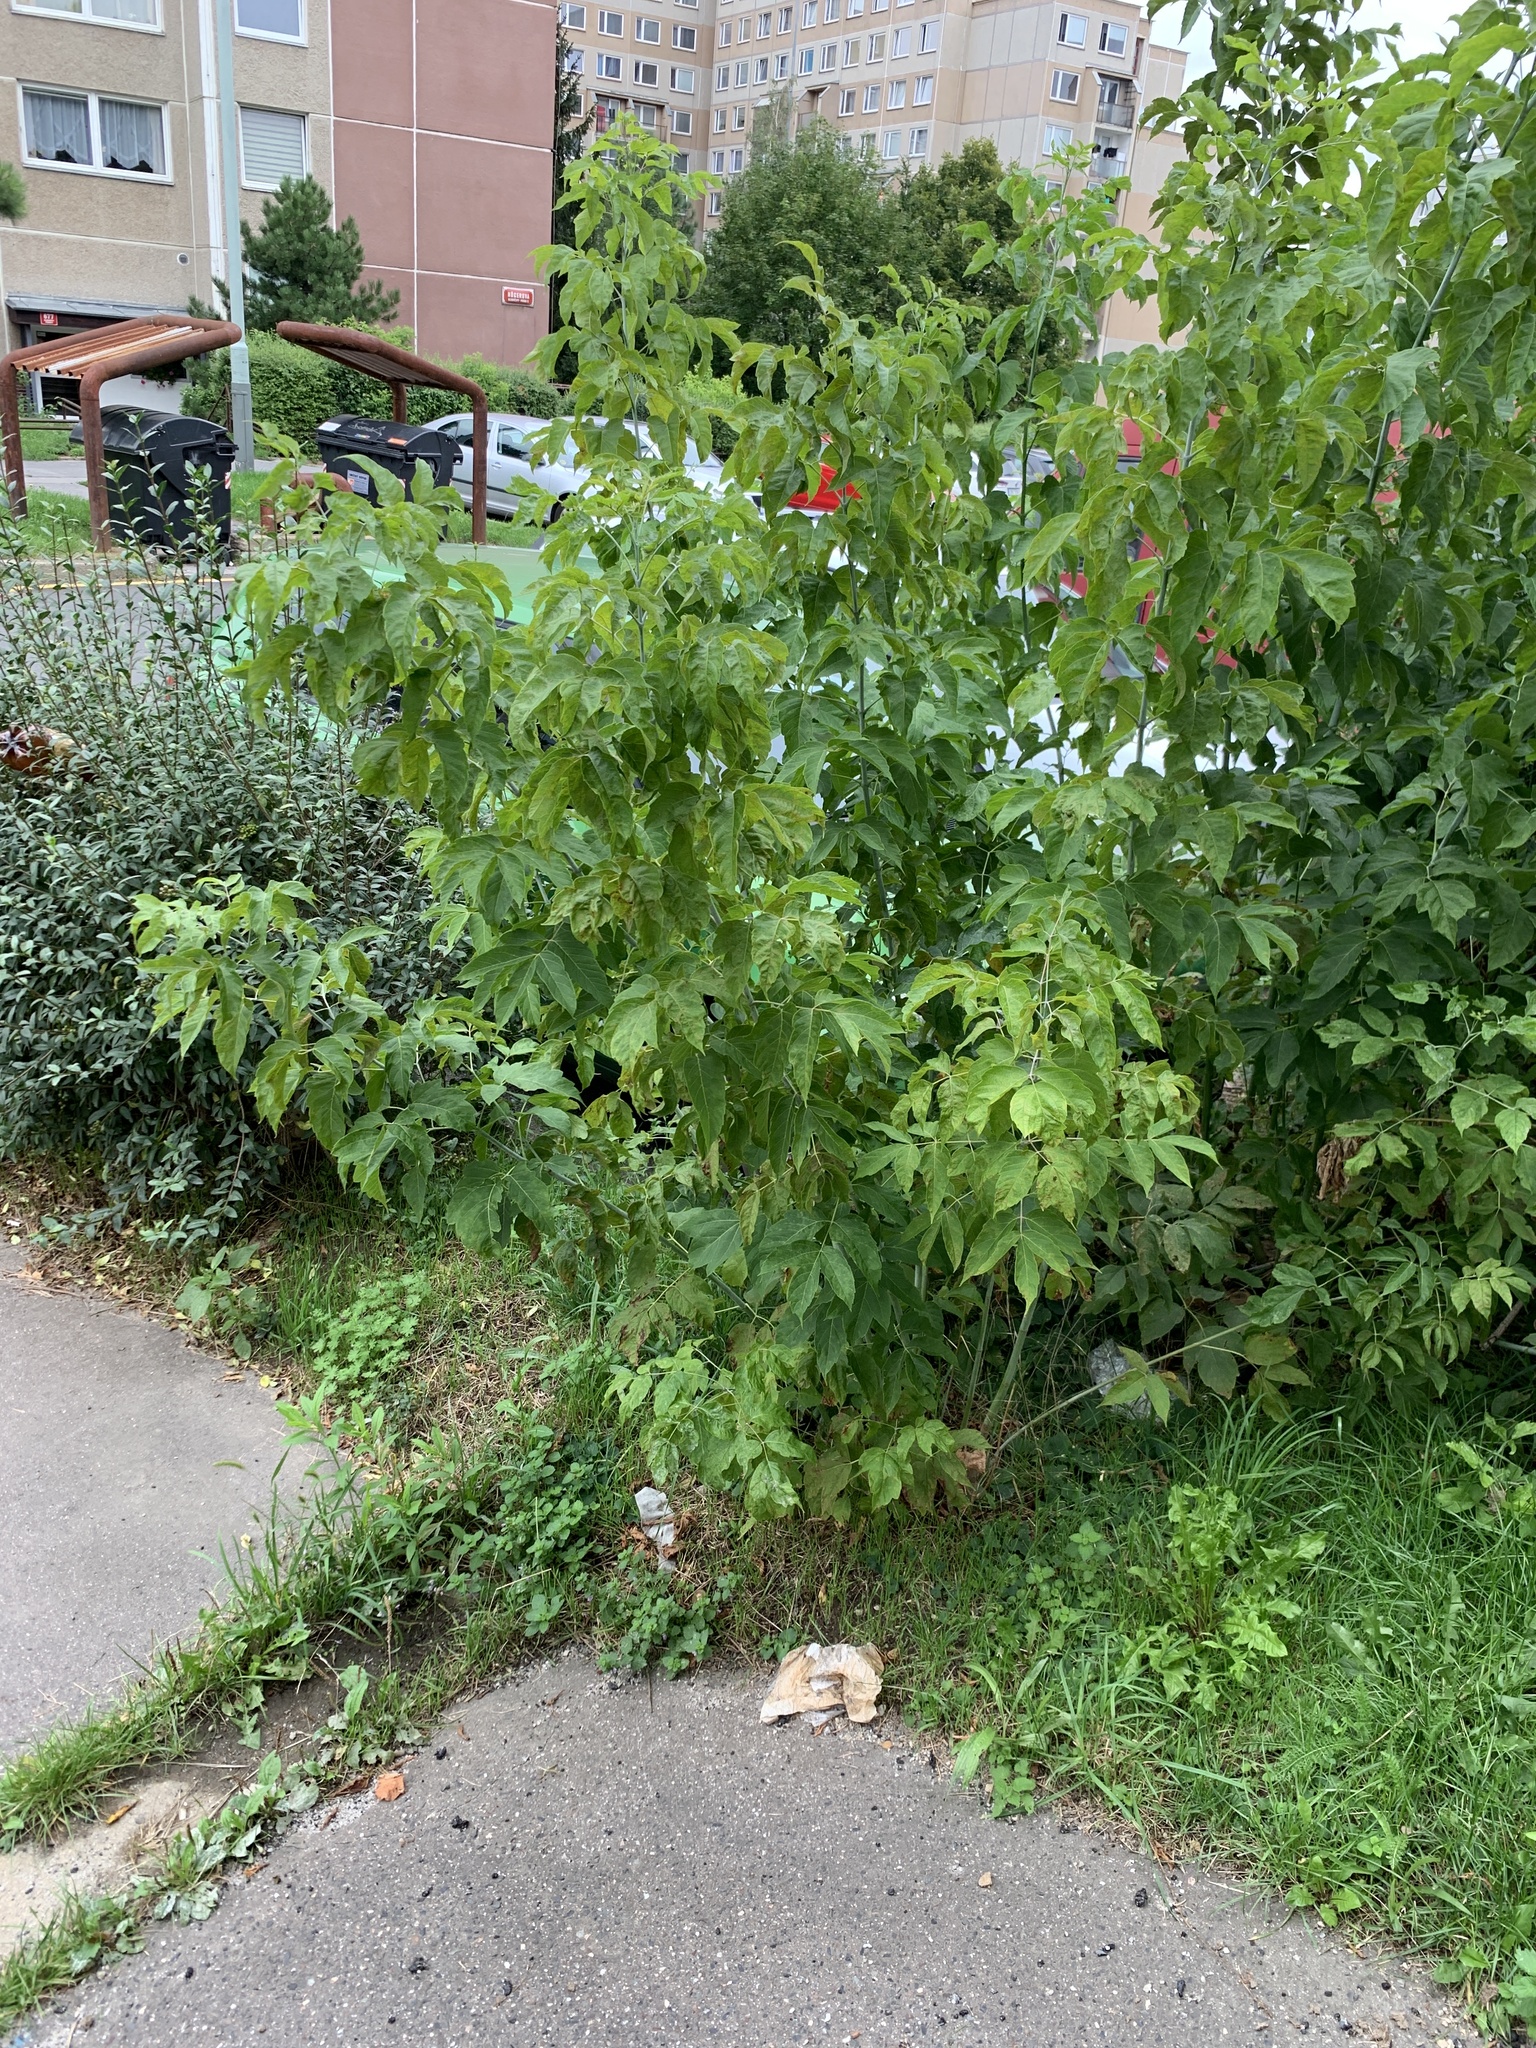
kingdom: Plantae
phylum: Tracheophyta
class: Magnoliopsida
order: Sapindales
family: Sapindaceae
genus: Acer
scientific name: Acer negundo
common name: Ashleaf maple
